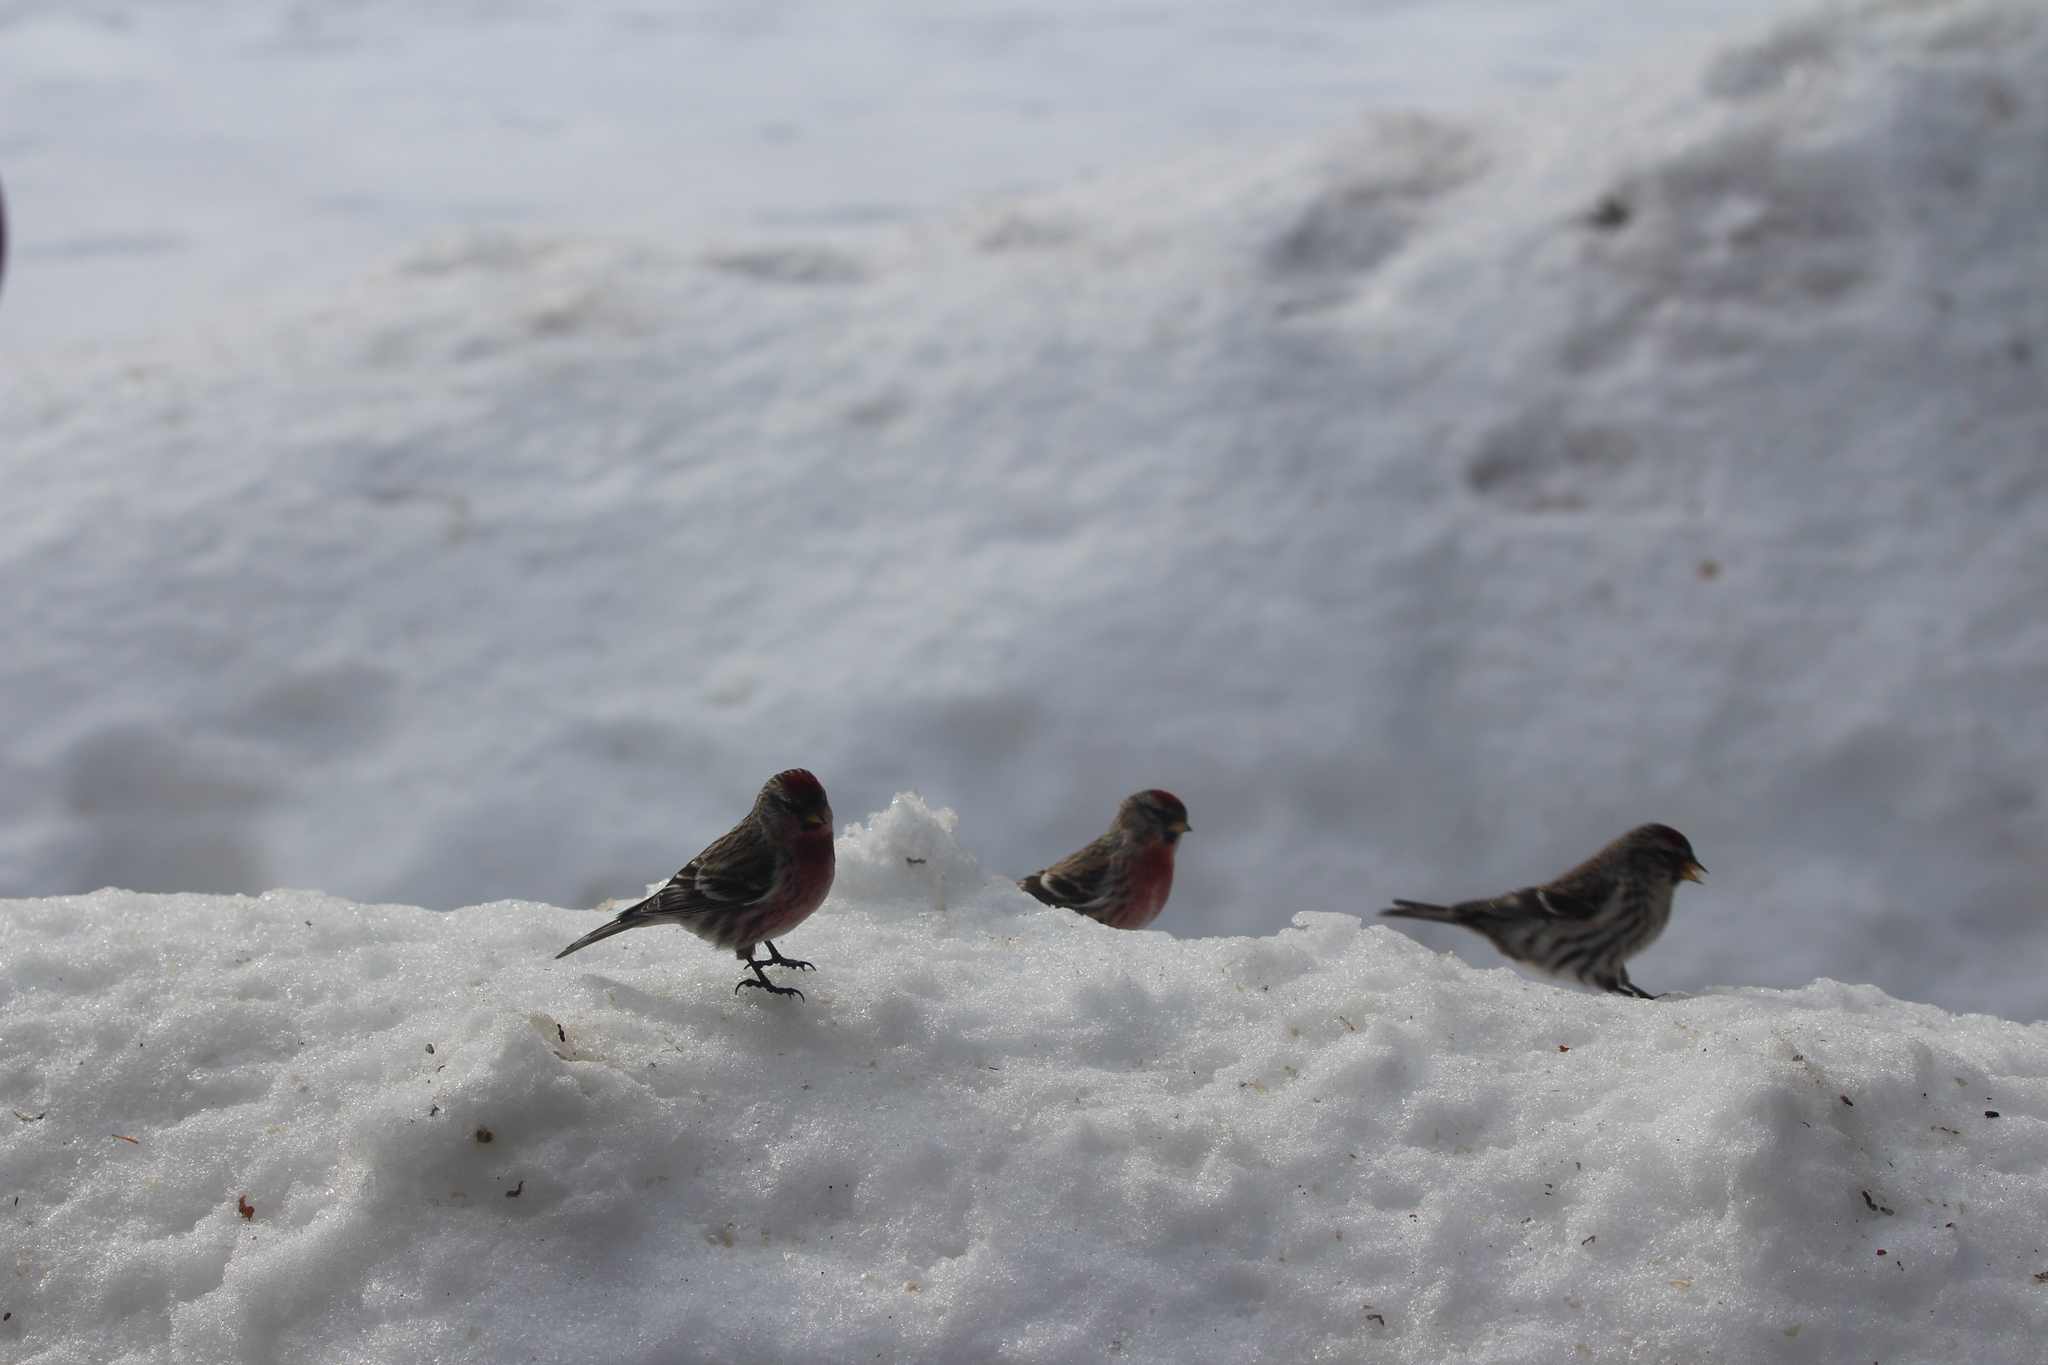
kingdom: Animalia
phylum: Chordata
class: Aves
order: Passeriformes
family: Fringillidae
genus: Acanthis
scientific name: Acanthis flammea
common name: Common redpoll
